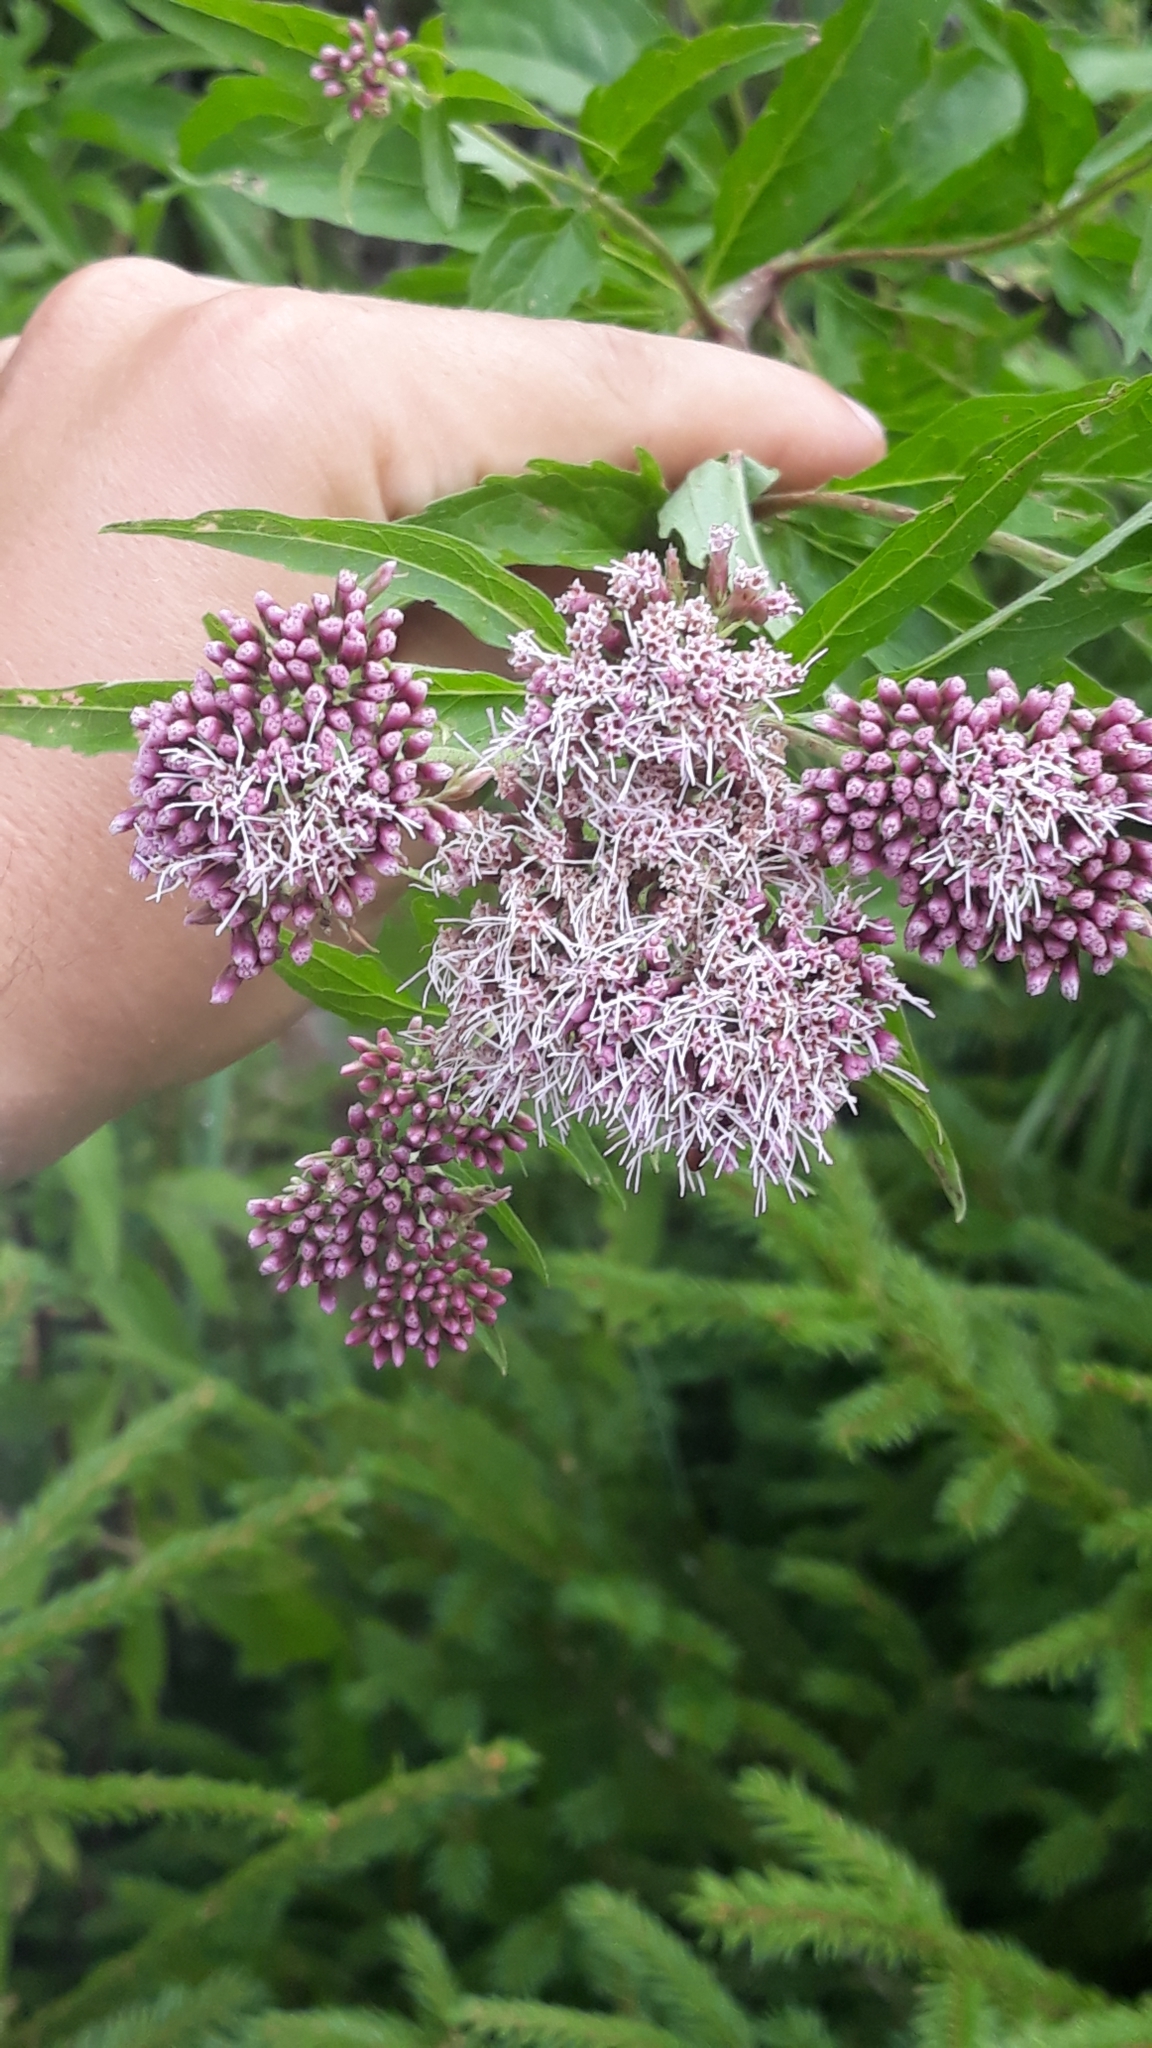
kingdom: Plantae
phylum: Tracheophyta
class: Magnoliopsida
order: Asterales
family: Asteraceae
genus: Eupatorium
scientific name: Eupatorium cannabinum
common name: Hemp-agrimony
